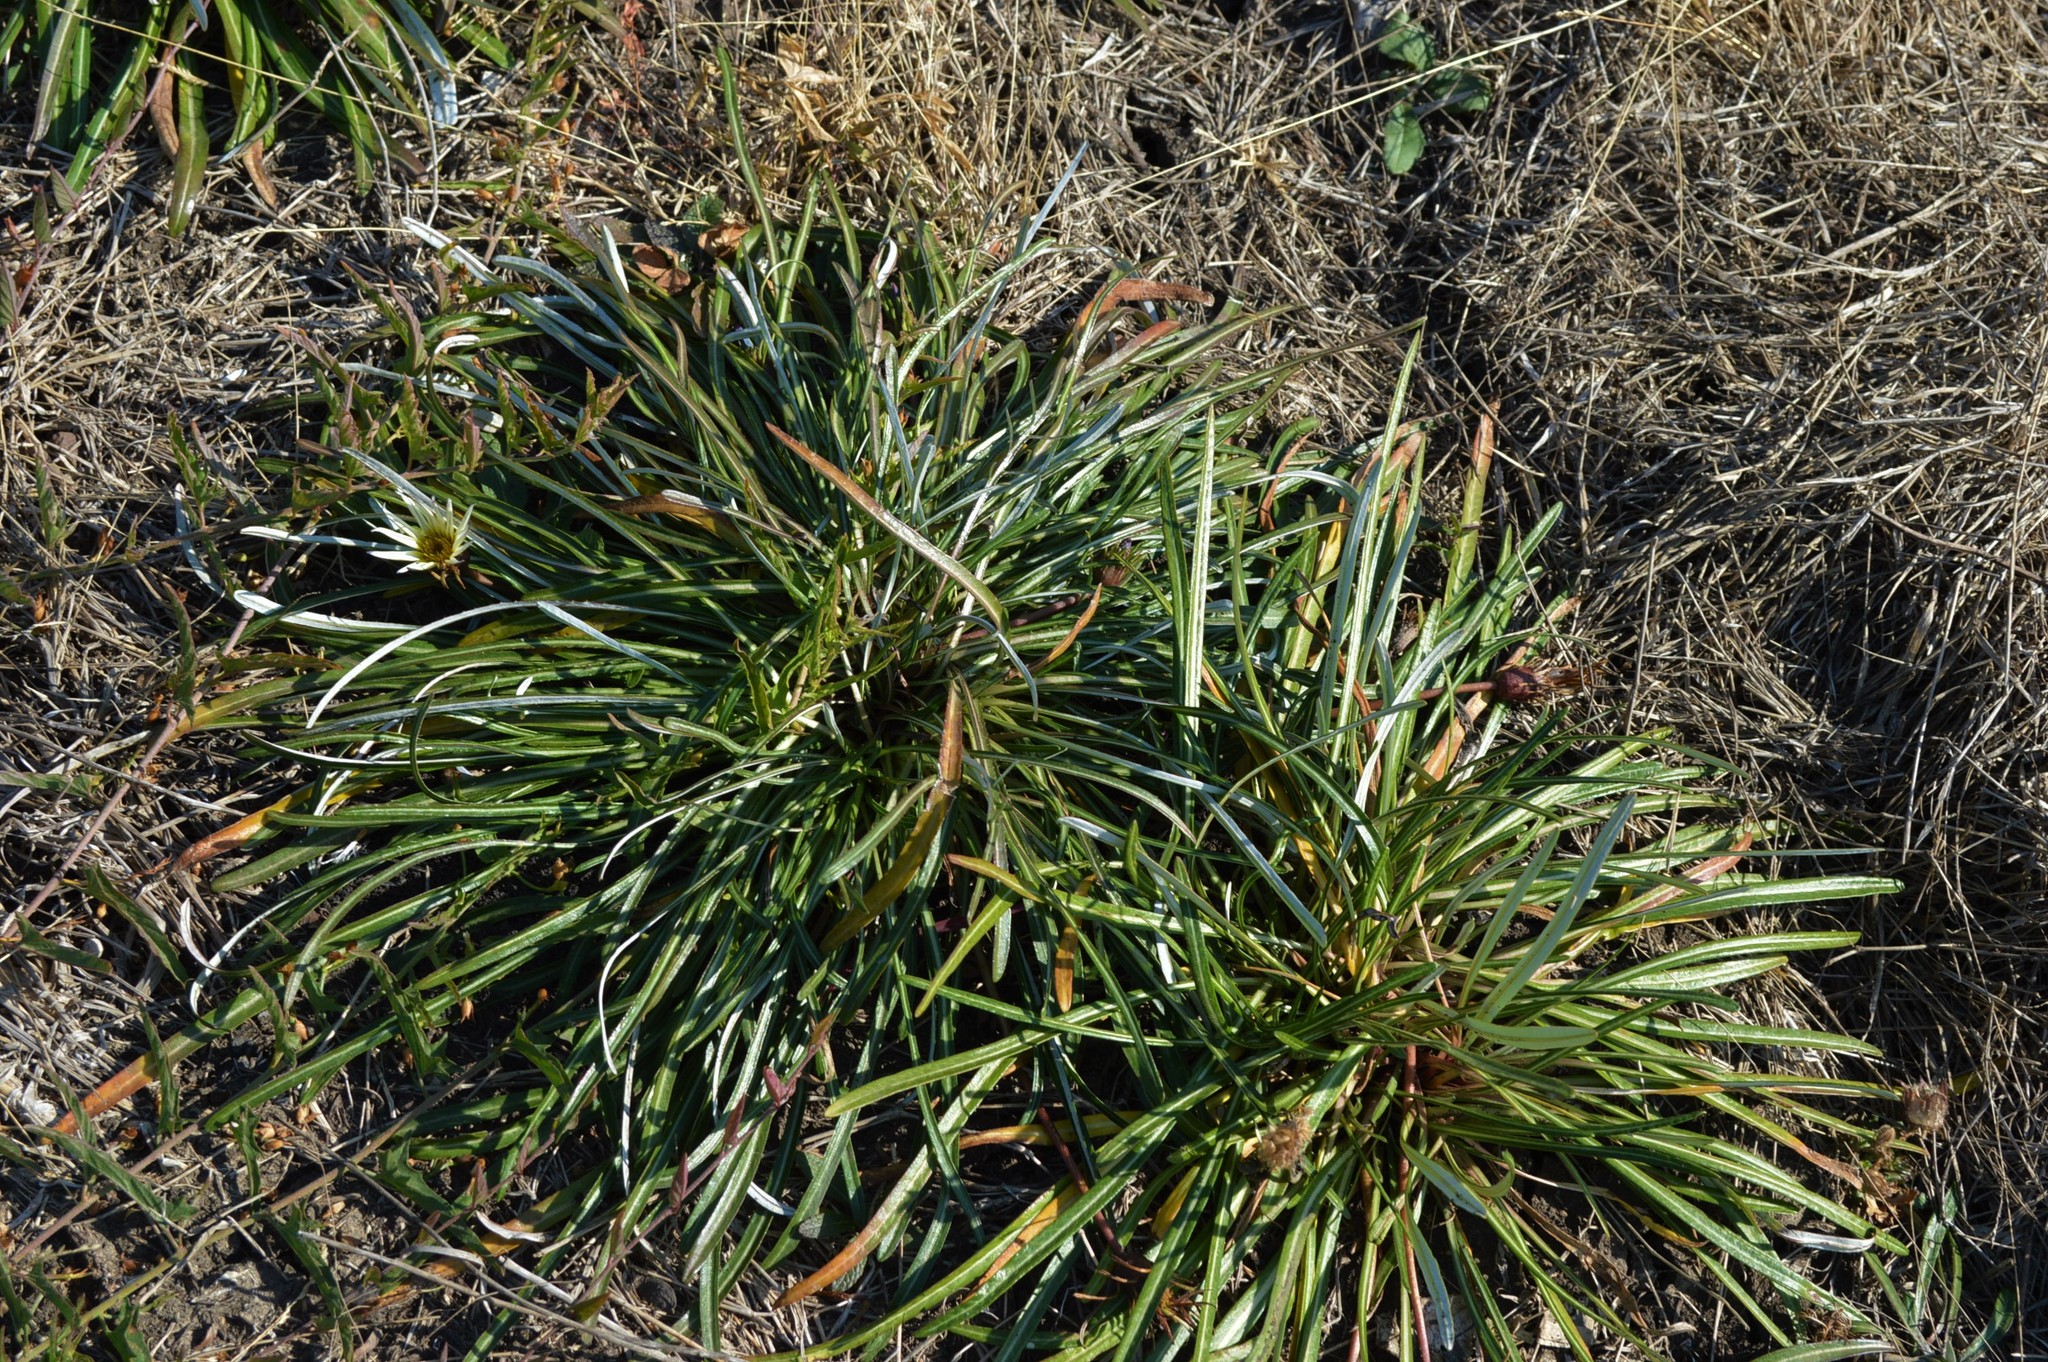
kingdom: Plantae
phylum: Tracheophyta
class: Magnoliopsida
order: Asterales
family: Asteraceae
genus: Gazania
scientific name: Gazania krebsiana
